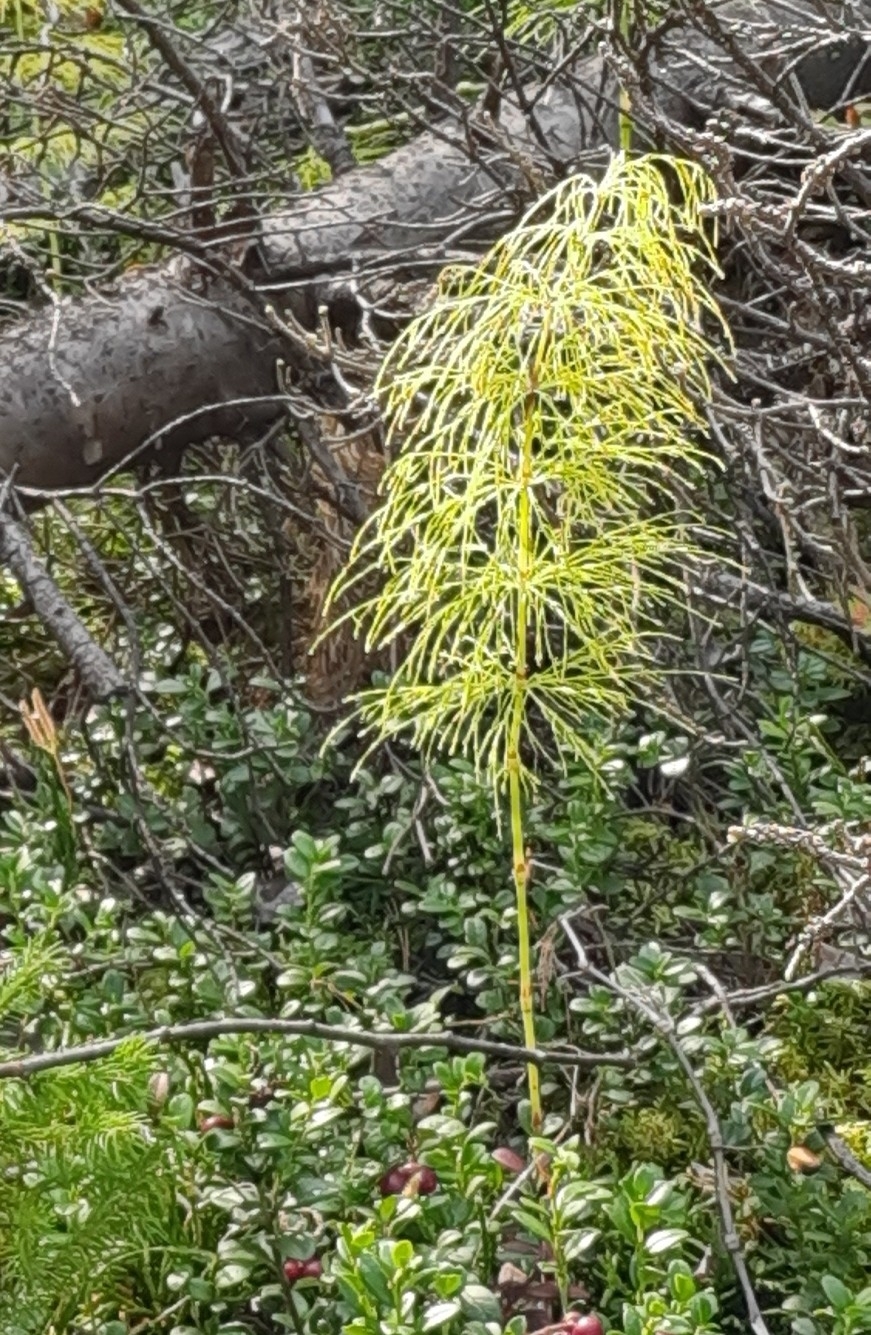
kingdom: Plantae
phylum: Tracheophyta
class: Polypodiopsida
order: Equisetales
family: Equisetaceae
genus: Equisetum
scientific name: Equisetum sylvaticum
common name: Wood horsetail
